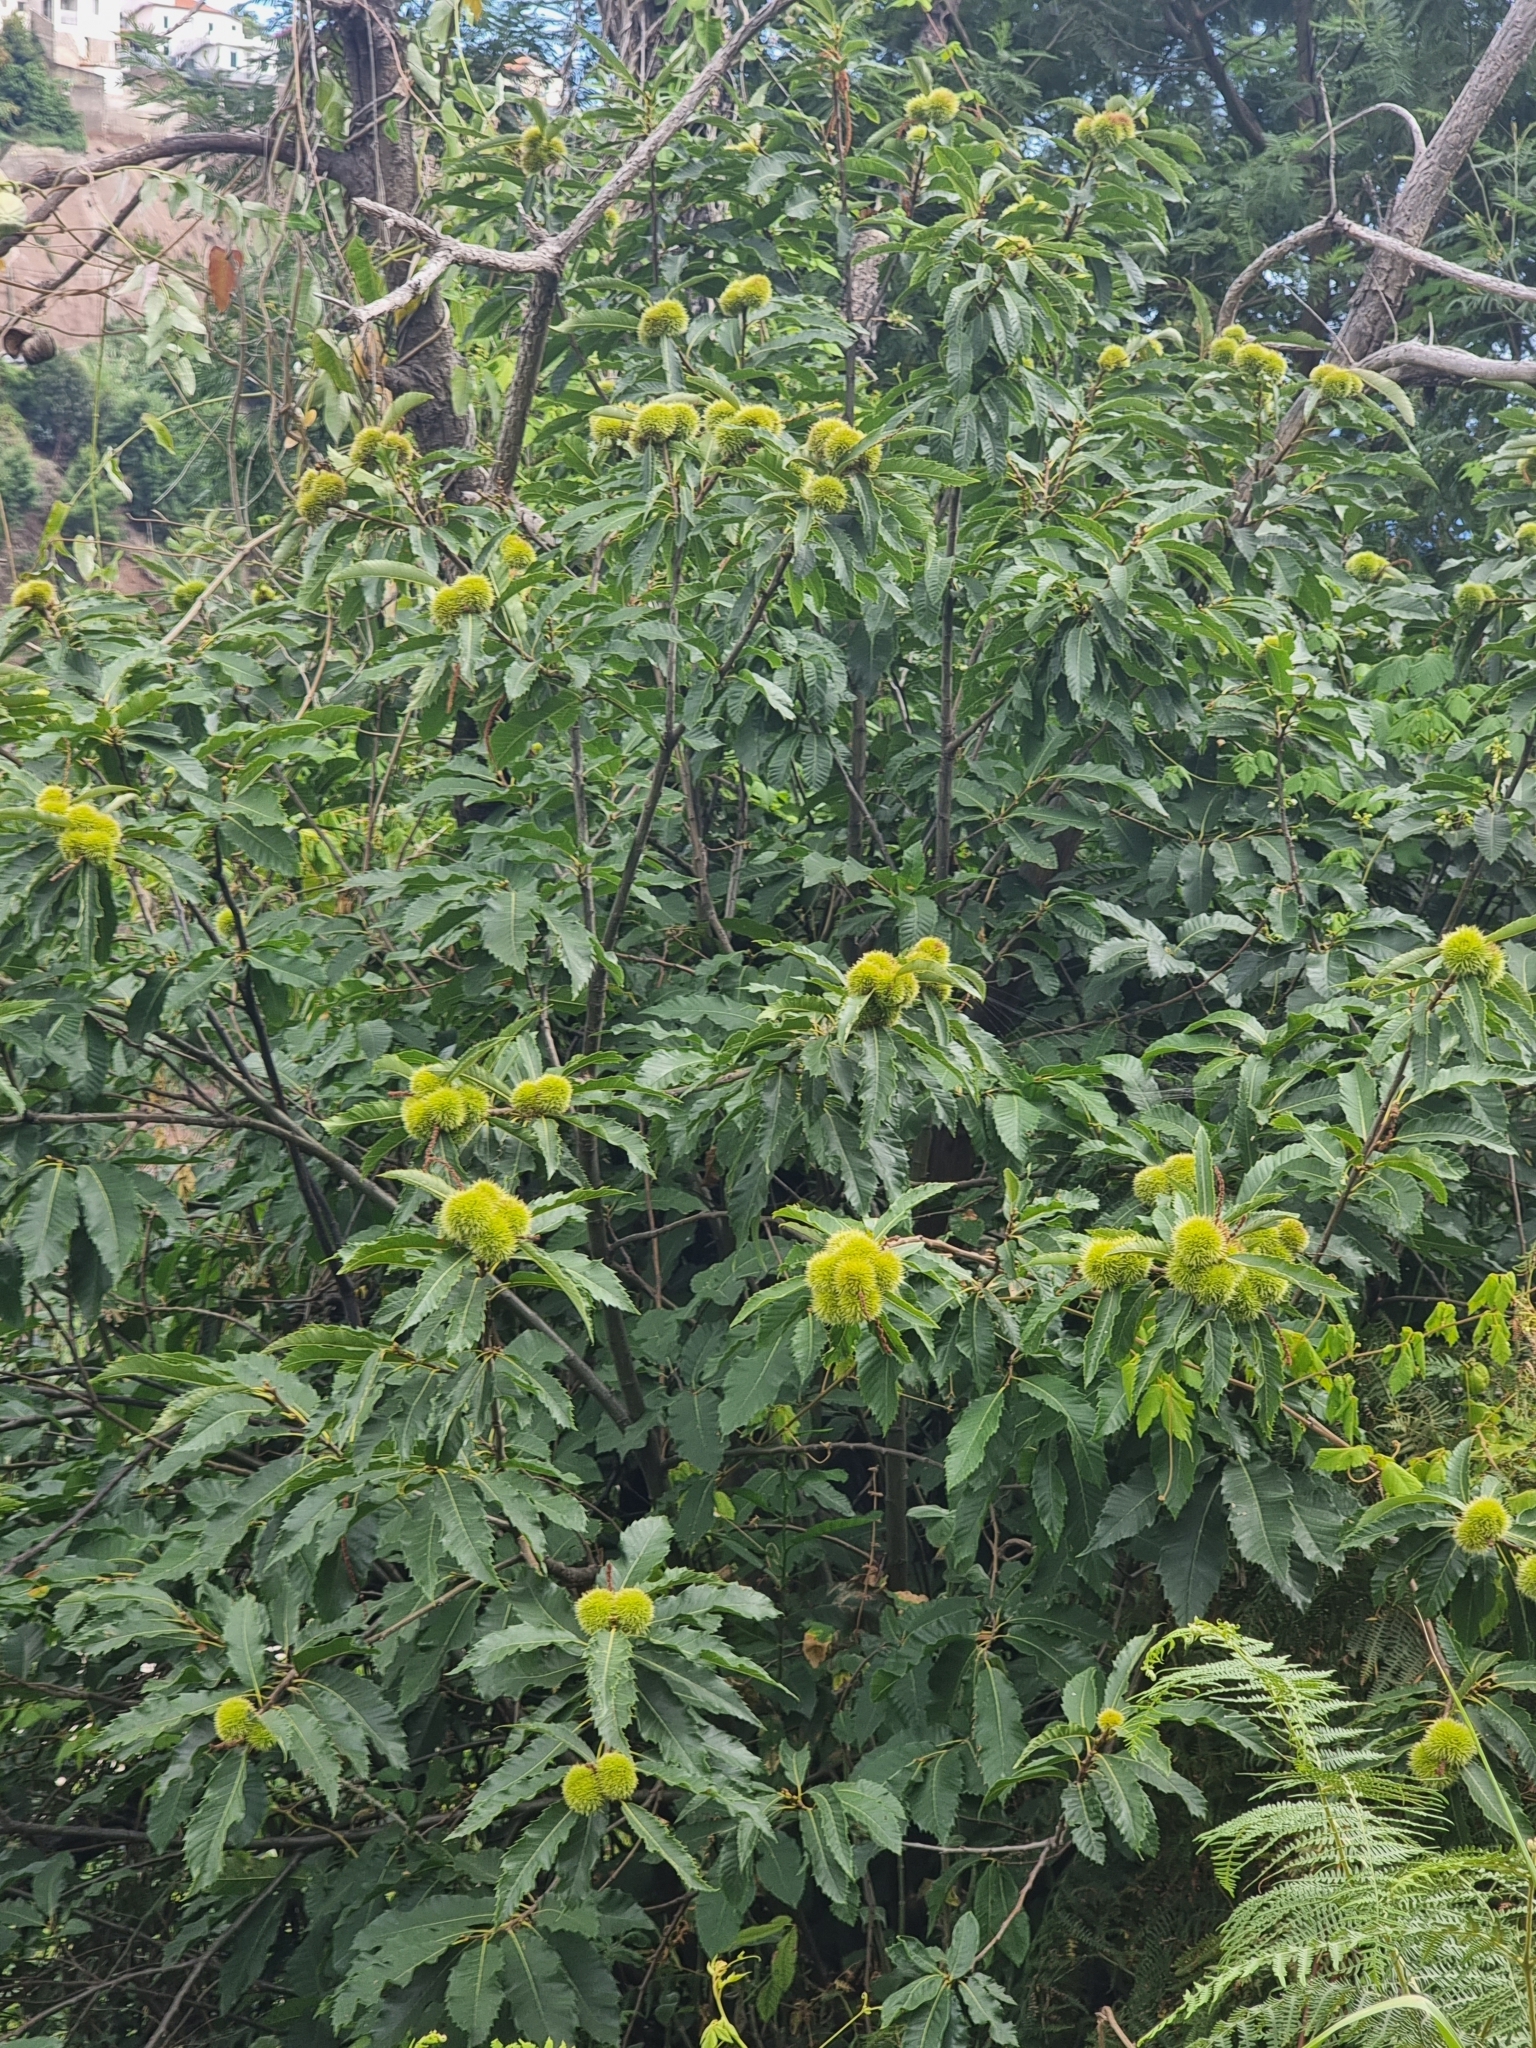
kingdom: Plantae
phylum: Tracheophyta
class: Magnoliopsida
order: Fagales
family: Fagaceae
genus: Castanea
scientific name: Castanea sativa
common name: Sweet chestnut
